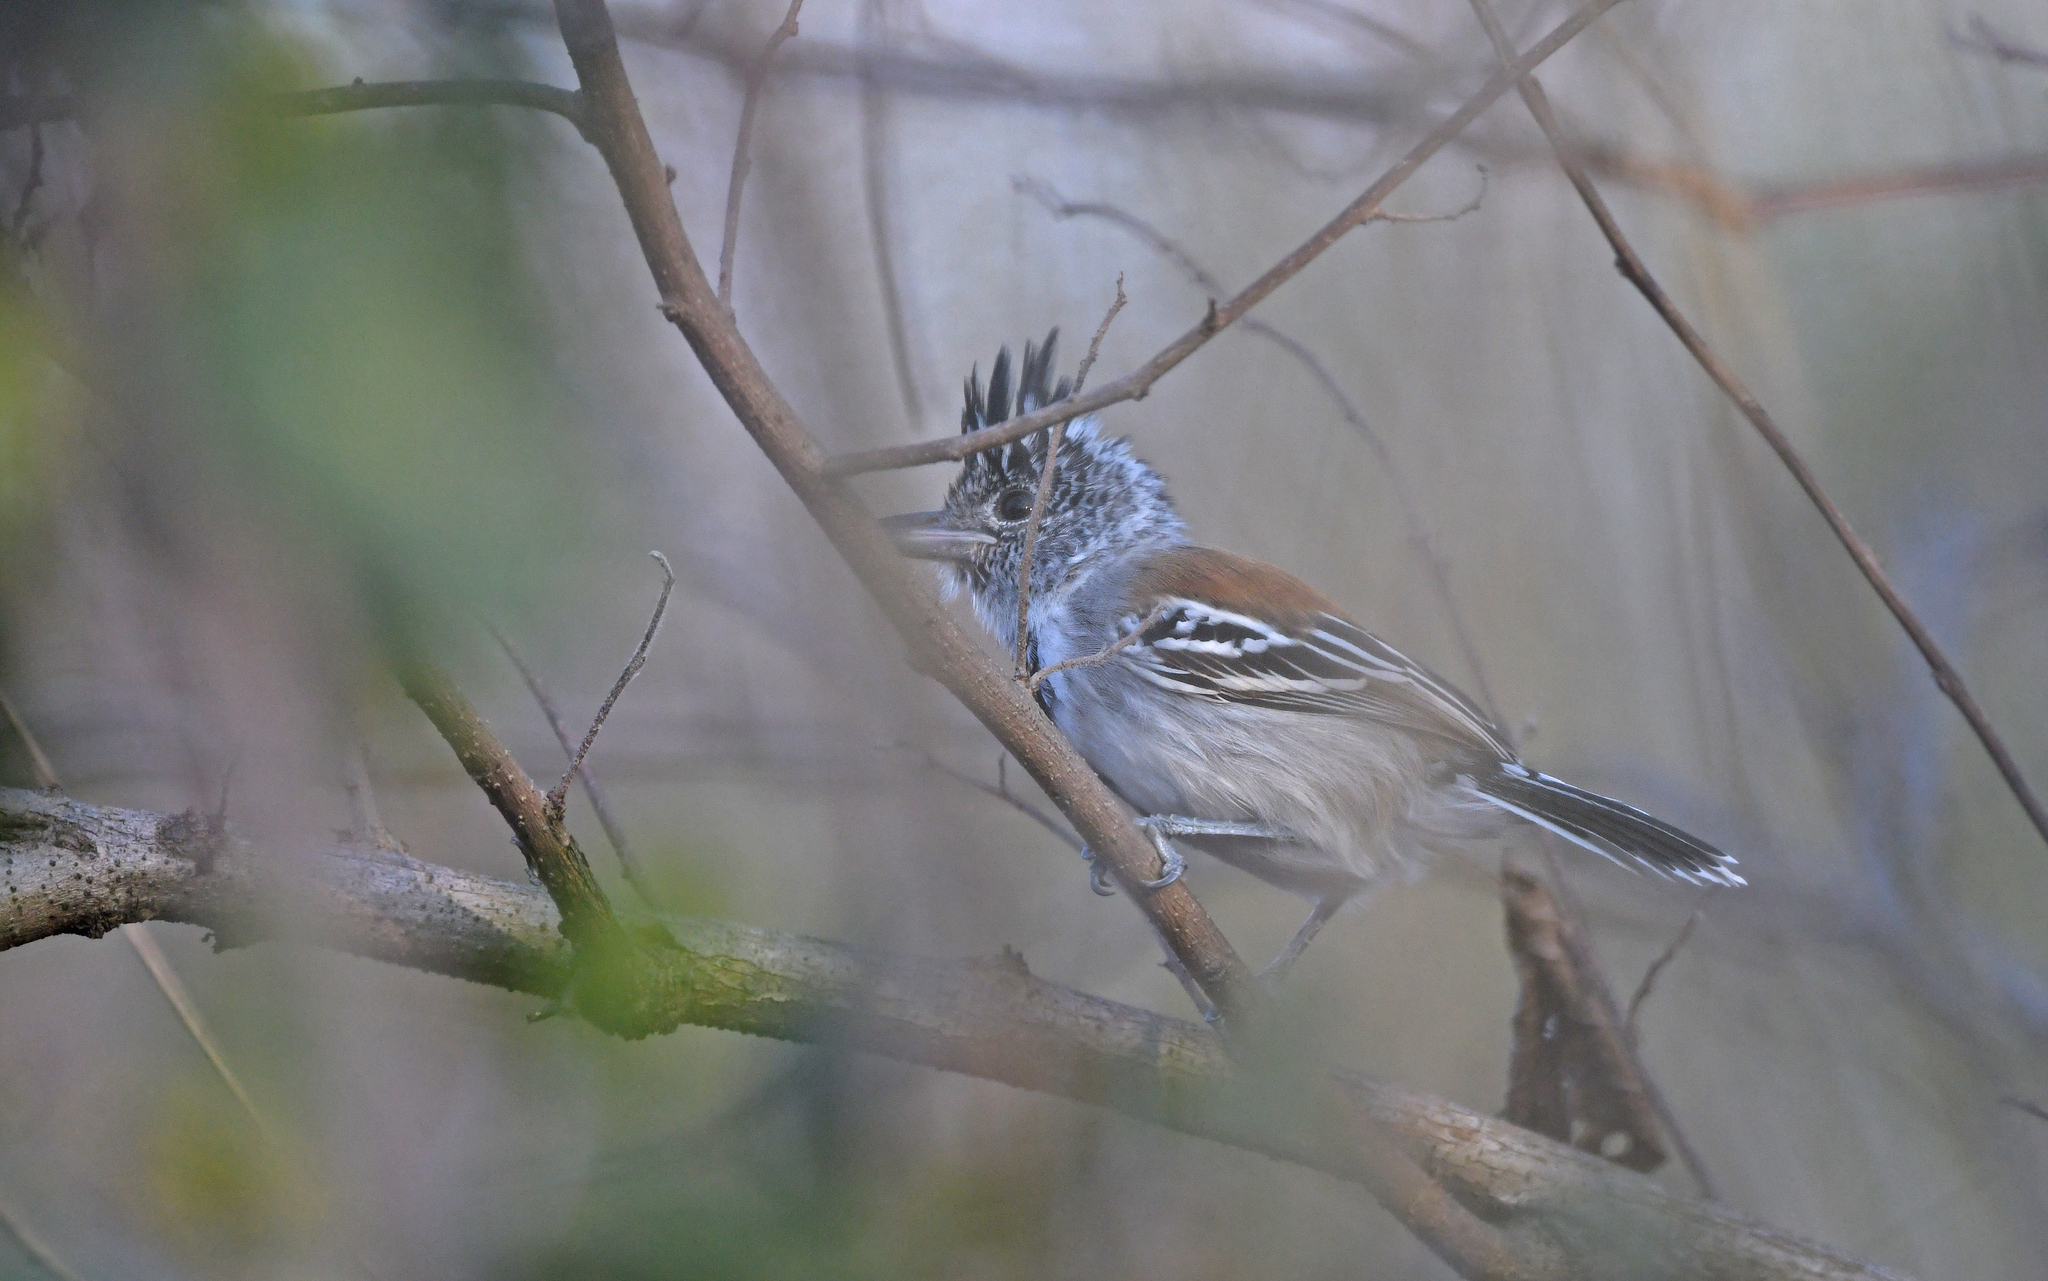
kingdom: Animalia
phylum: Chordata
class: Aves
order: Passeriformes
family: Thamnophilidae
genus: Sakesphorus
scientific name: Sakesphorus canadensis
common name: Black-crested antshrike
